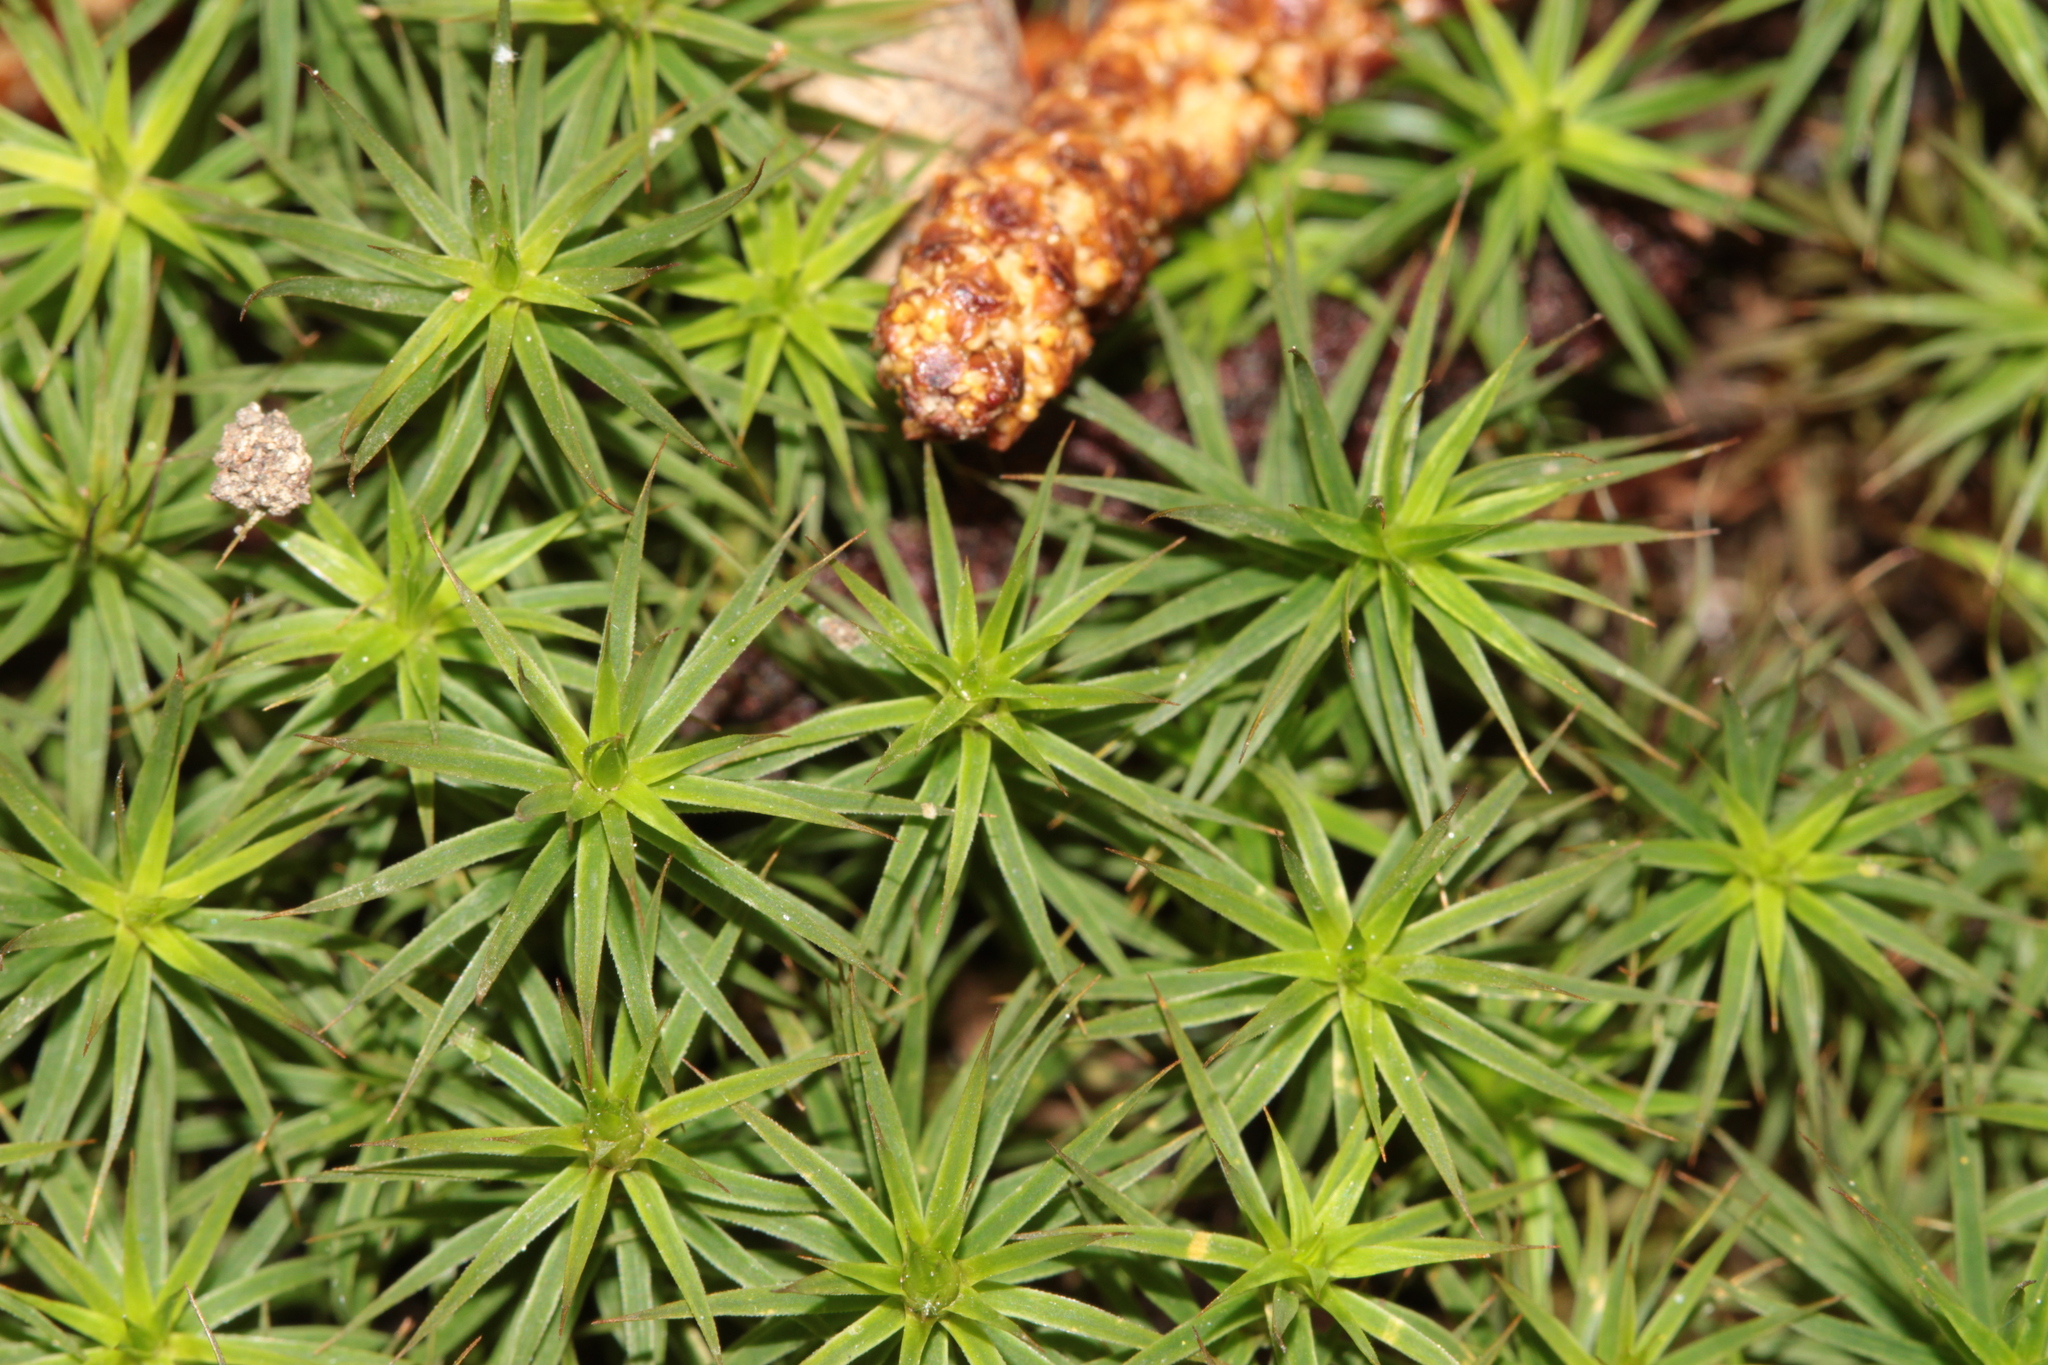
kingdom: Plantae
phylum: Bryophyta
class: Polytrichopsida
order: Polytrichales
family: Polytrichaceae
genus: Polytrichum
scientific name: Polytrichum formosum
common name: Bank haircap moss
